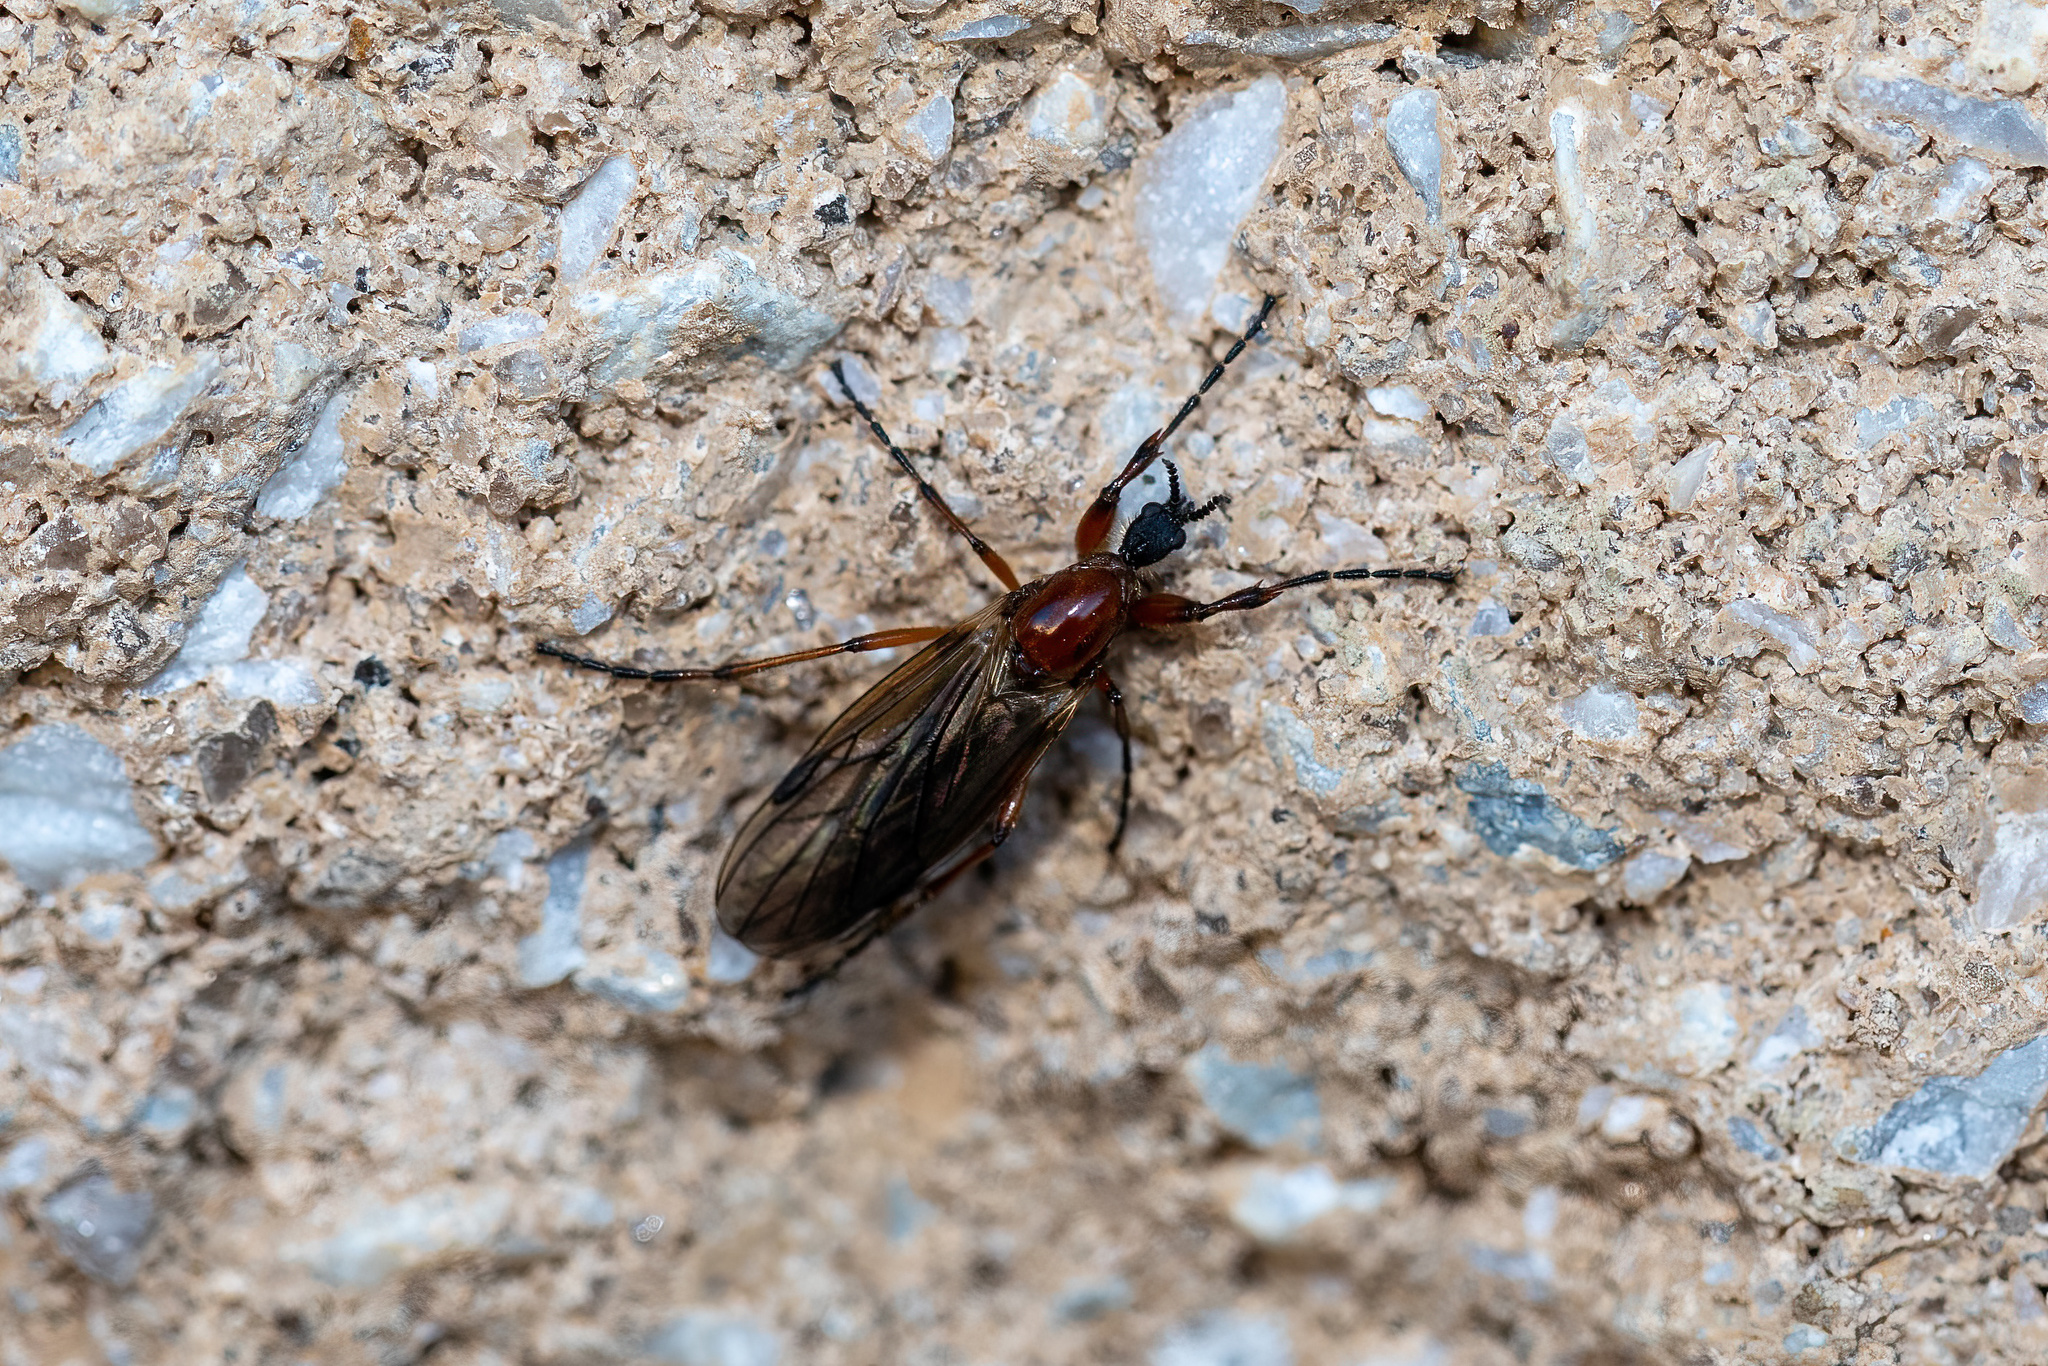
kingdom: Animalia
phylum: Arthropoda
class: Insecta
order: Diptera
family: Bibionidae
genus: Bibio
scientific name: Bibio longipes
